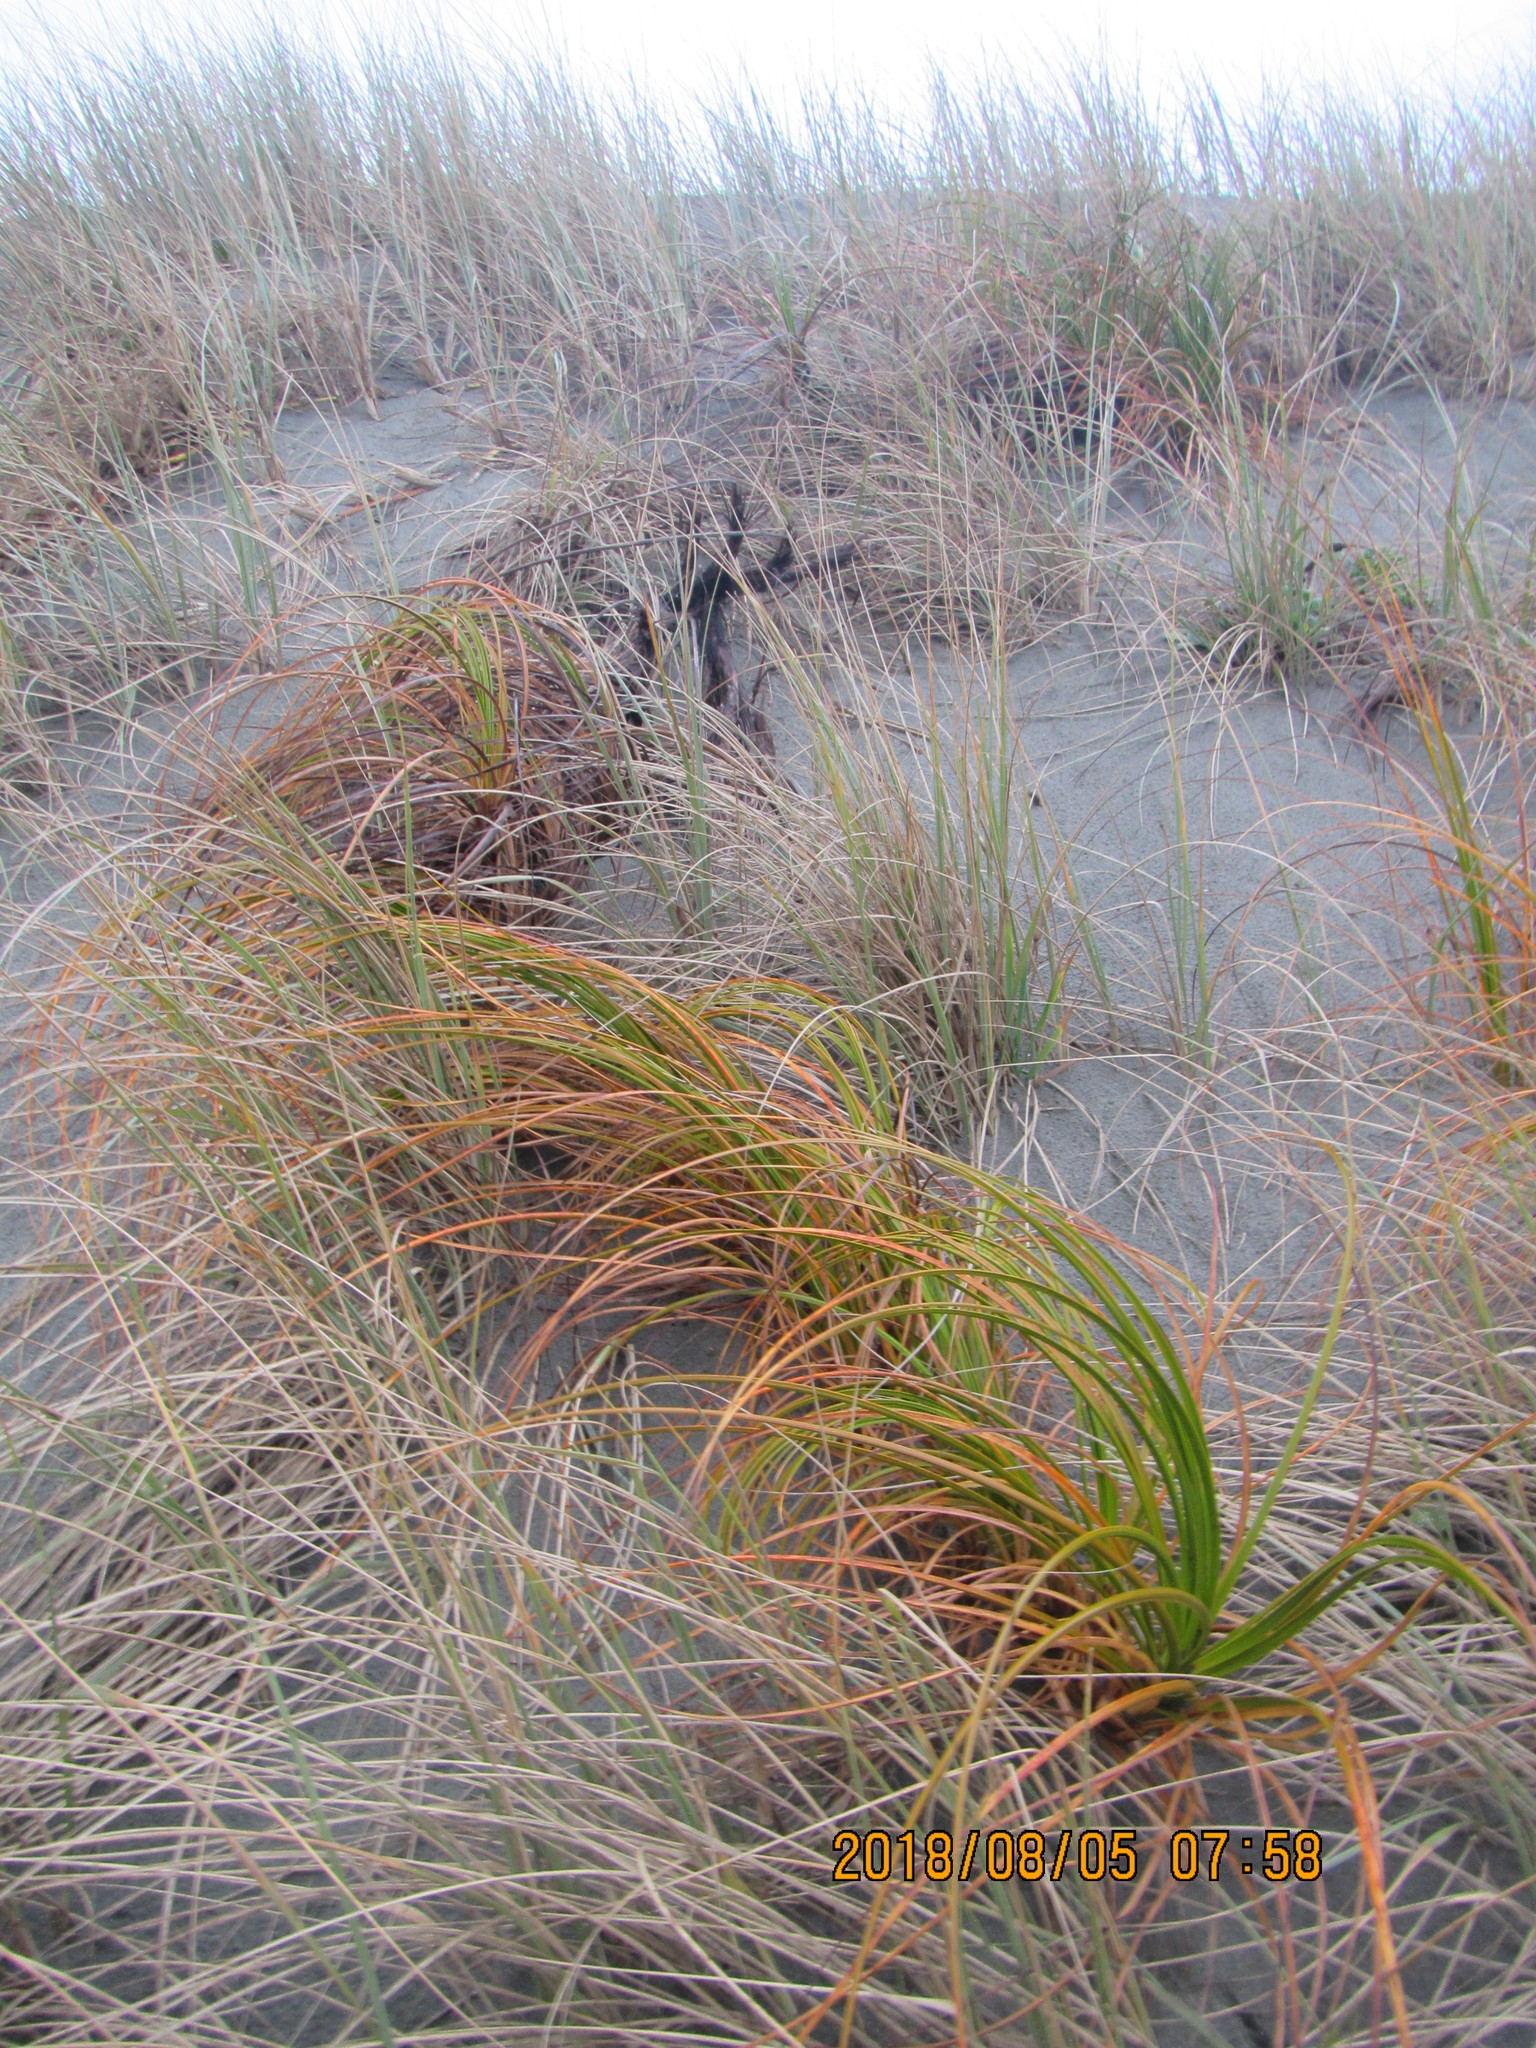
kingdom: Plantae
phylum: Tracheophyta
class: Liliopsida
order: Poales
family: Cyperaceae
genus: Ficinia
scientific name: Ficinia spiralis
